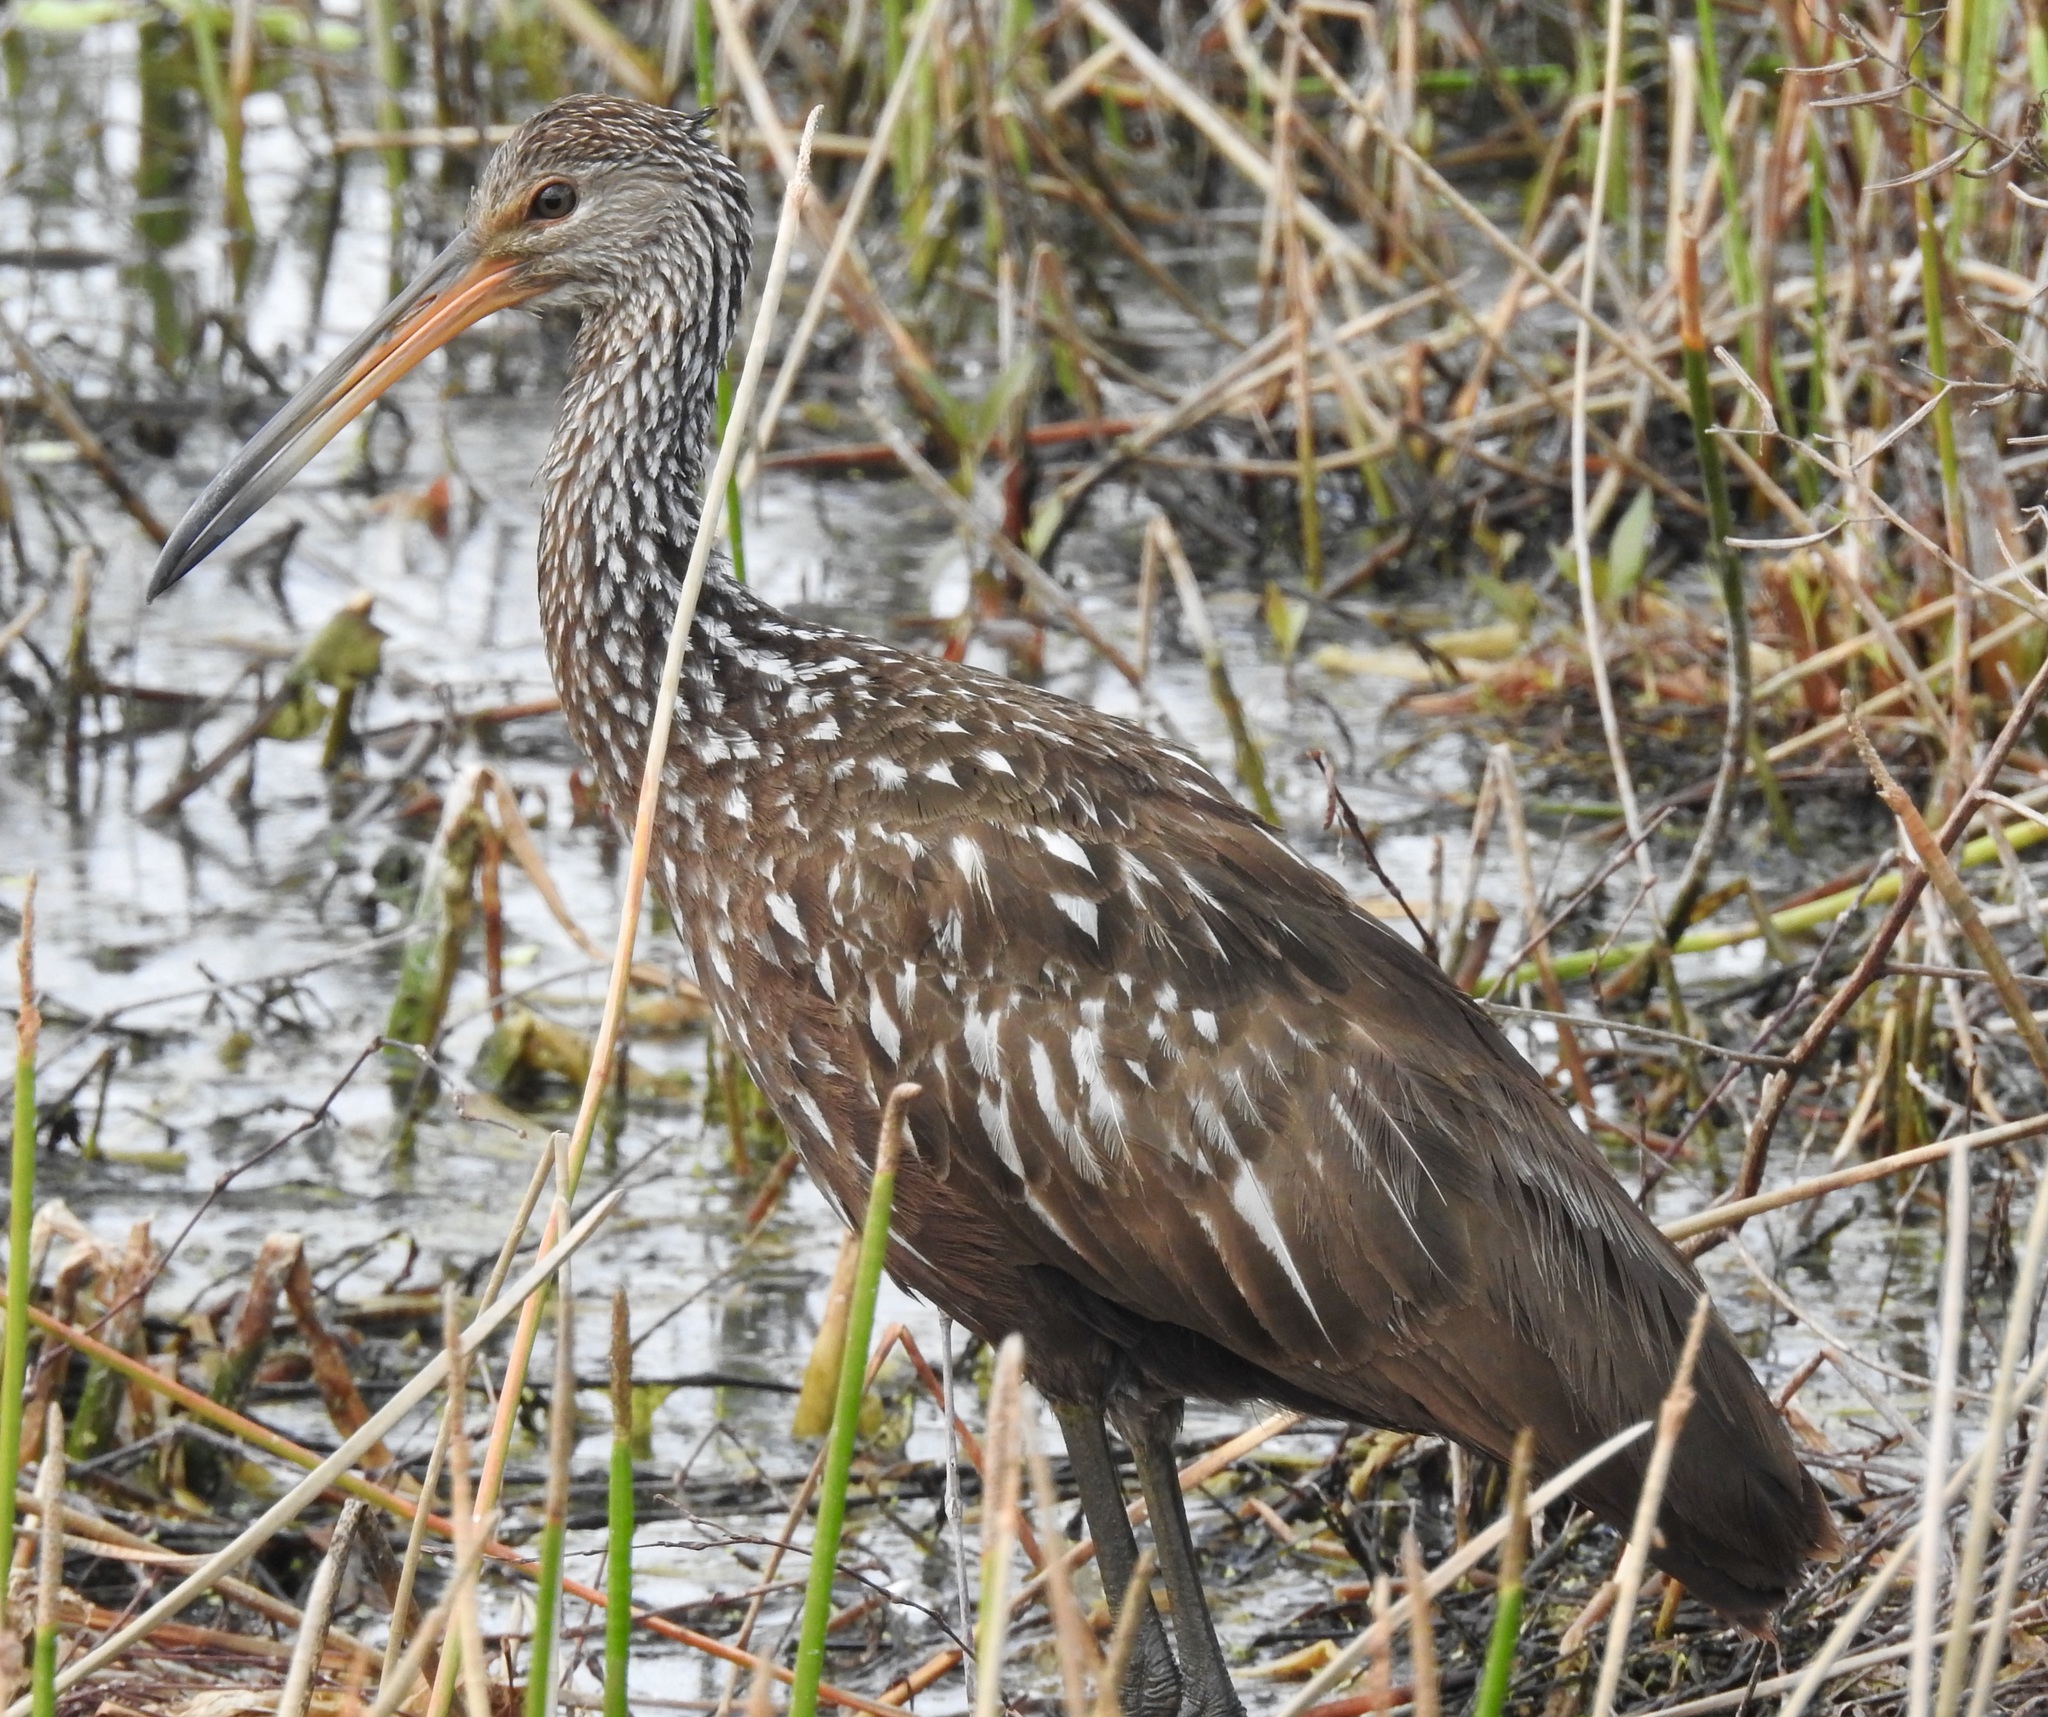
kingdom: Animalia
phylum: Chordata
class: Aves
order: Gruiformes
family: Aramidae
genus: Aramus
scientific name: Aramus guarauna
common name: Limpkin
